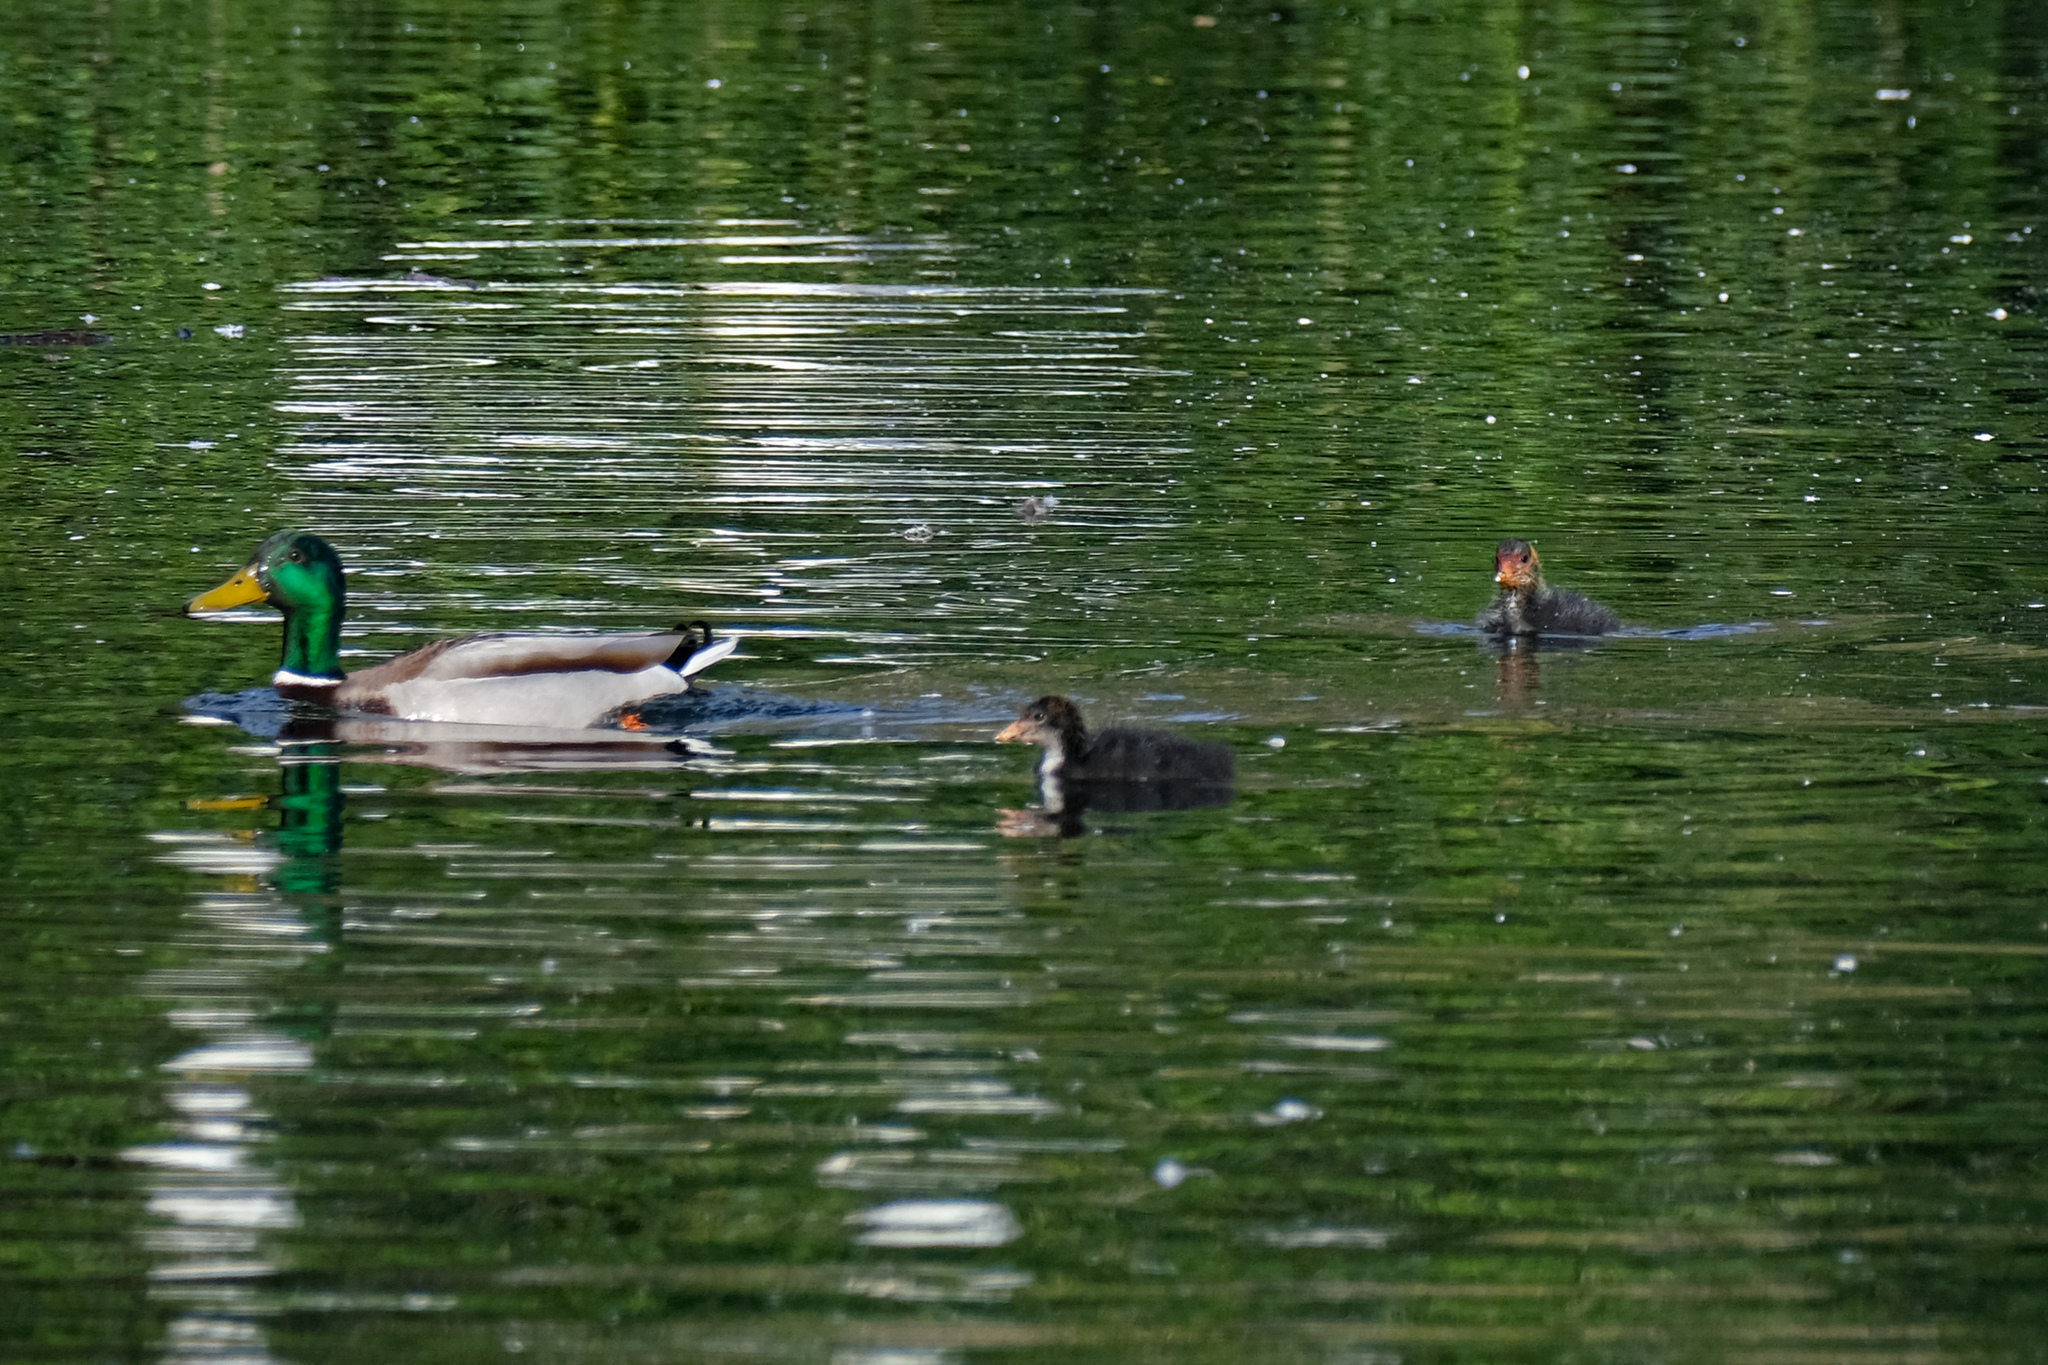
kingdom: Animalia
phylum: Chordata
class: Aves
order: Anseriformes
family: Anatidae
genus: Anas
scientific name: Anas platyrhynchos
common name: Mallard
